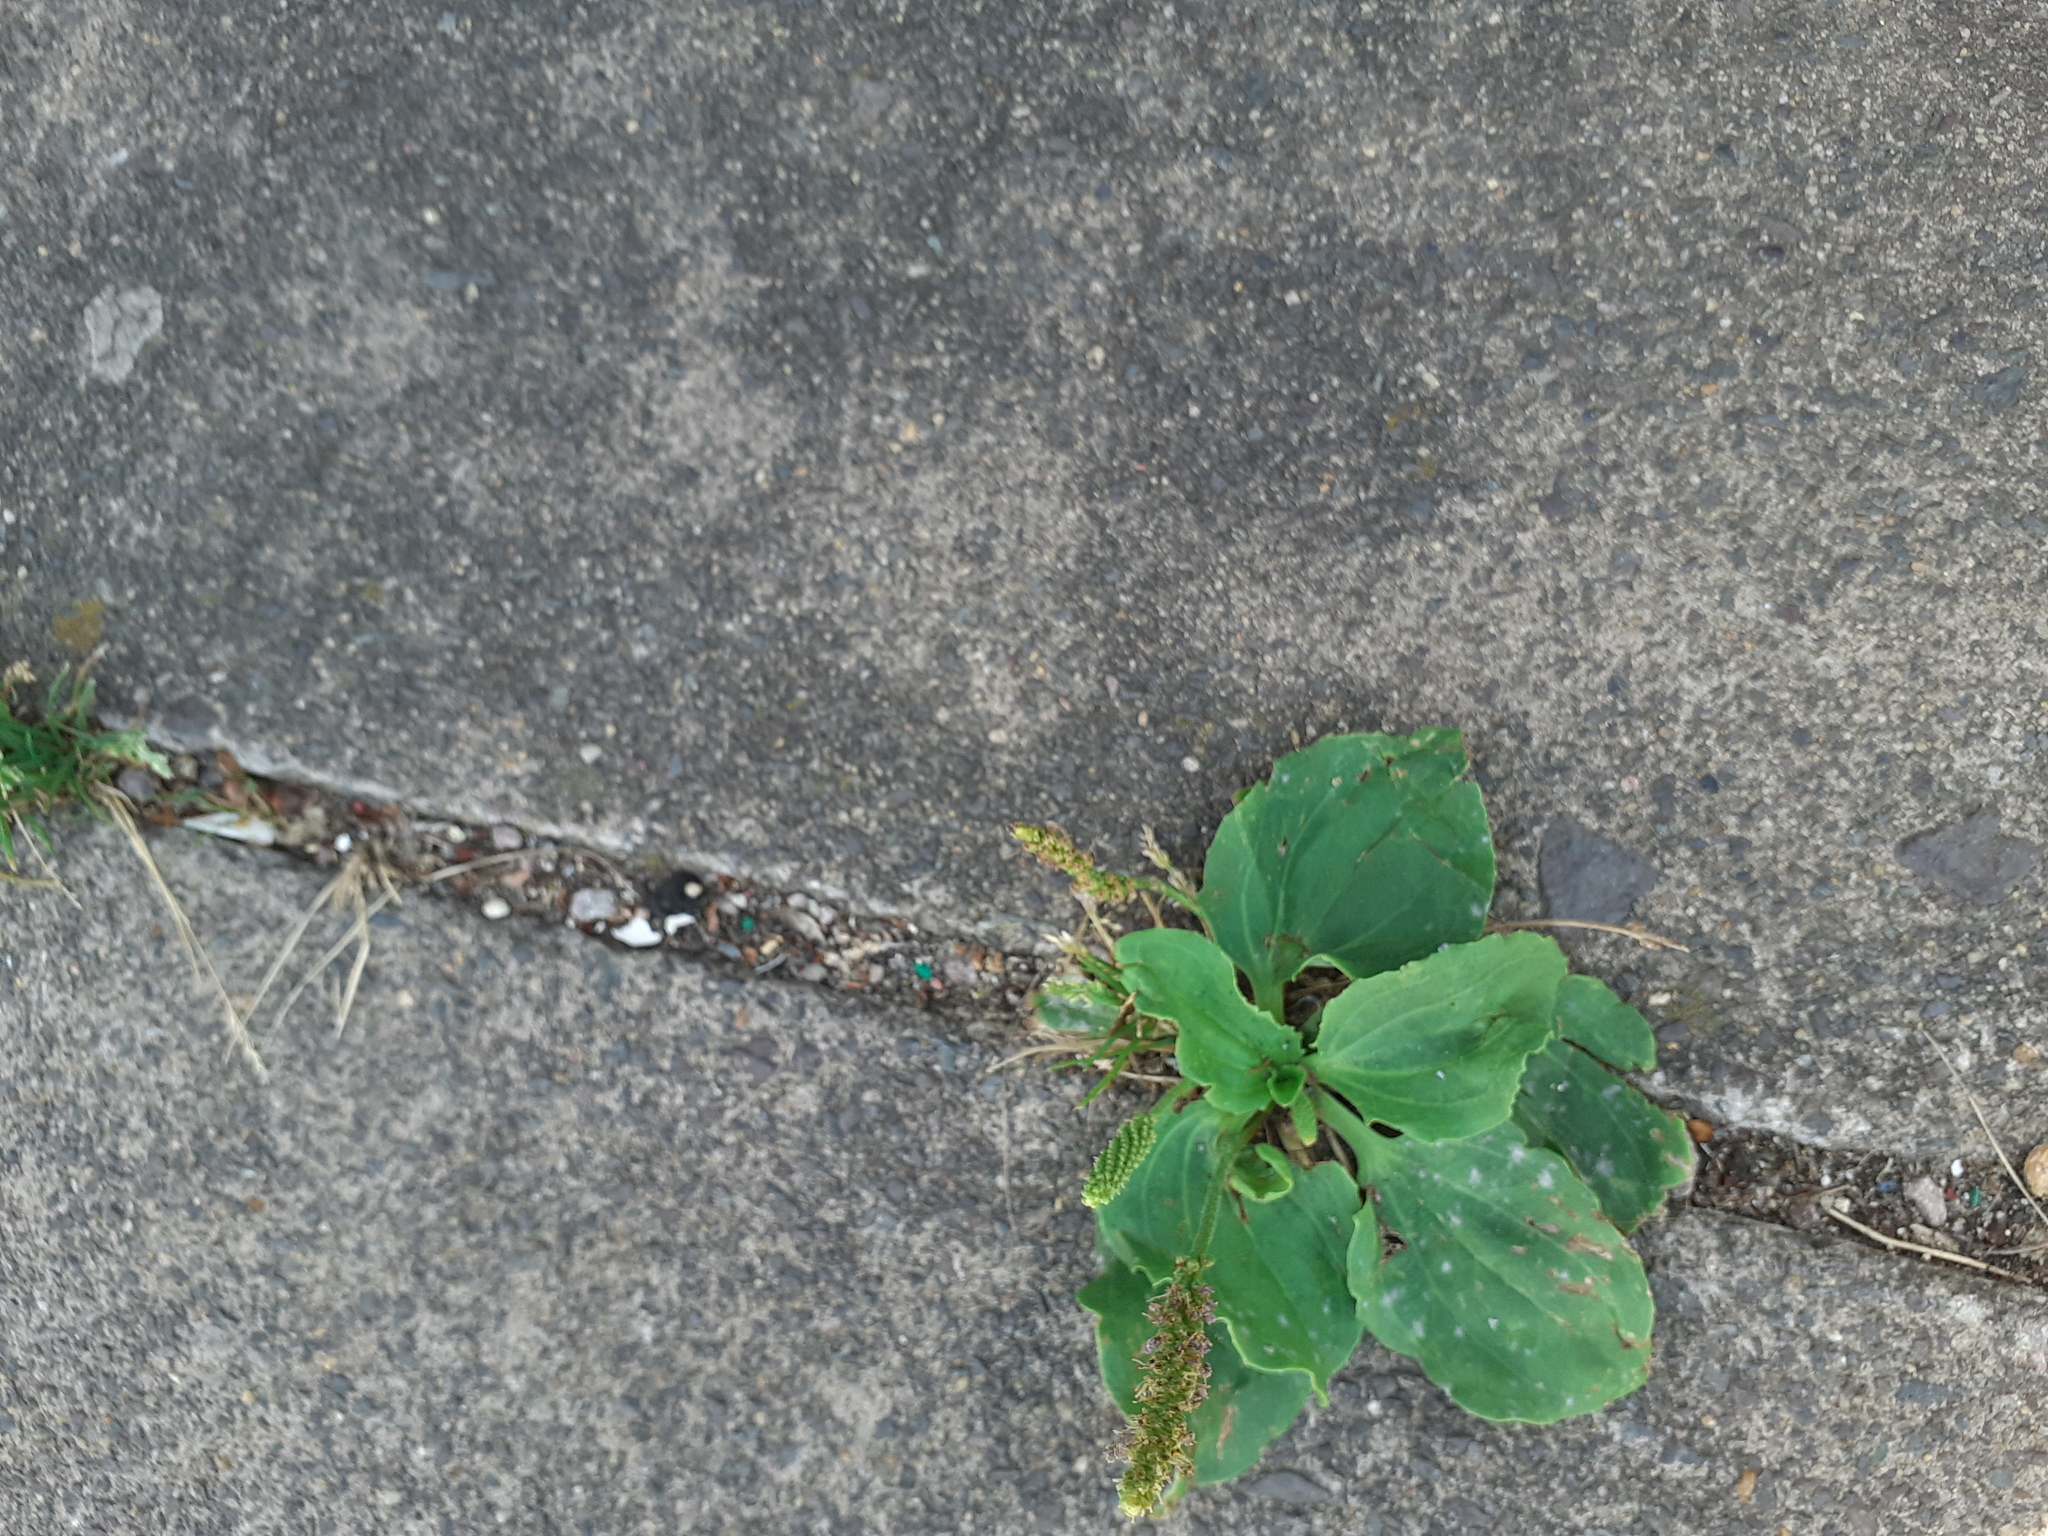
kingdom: Plantae
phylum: Tracheophyta
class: Magnoliopsida
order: Lamiales
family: Plantaginaceae
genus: Plantago
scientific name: Plantago major
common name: Common plantain
